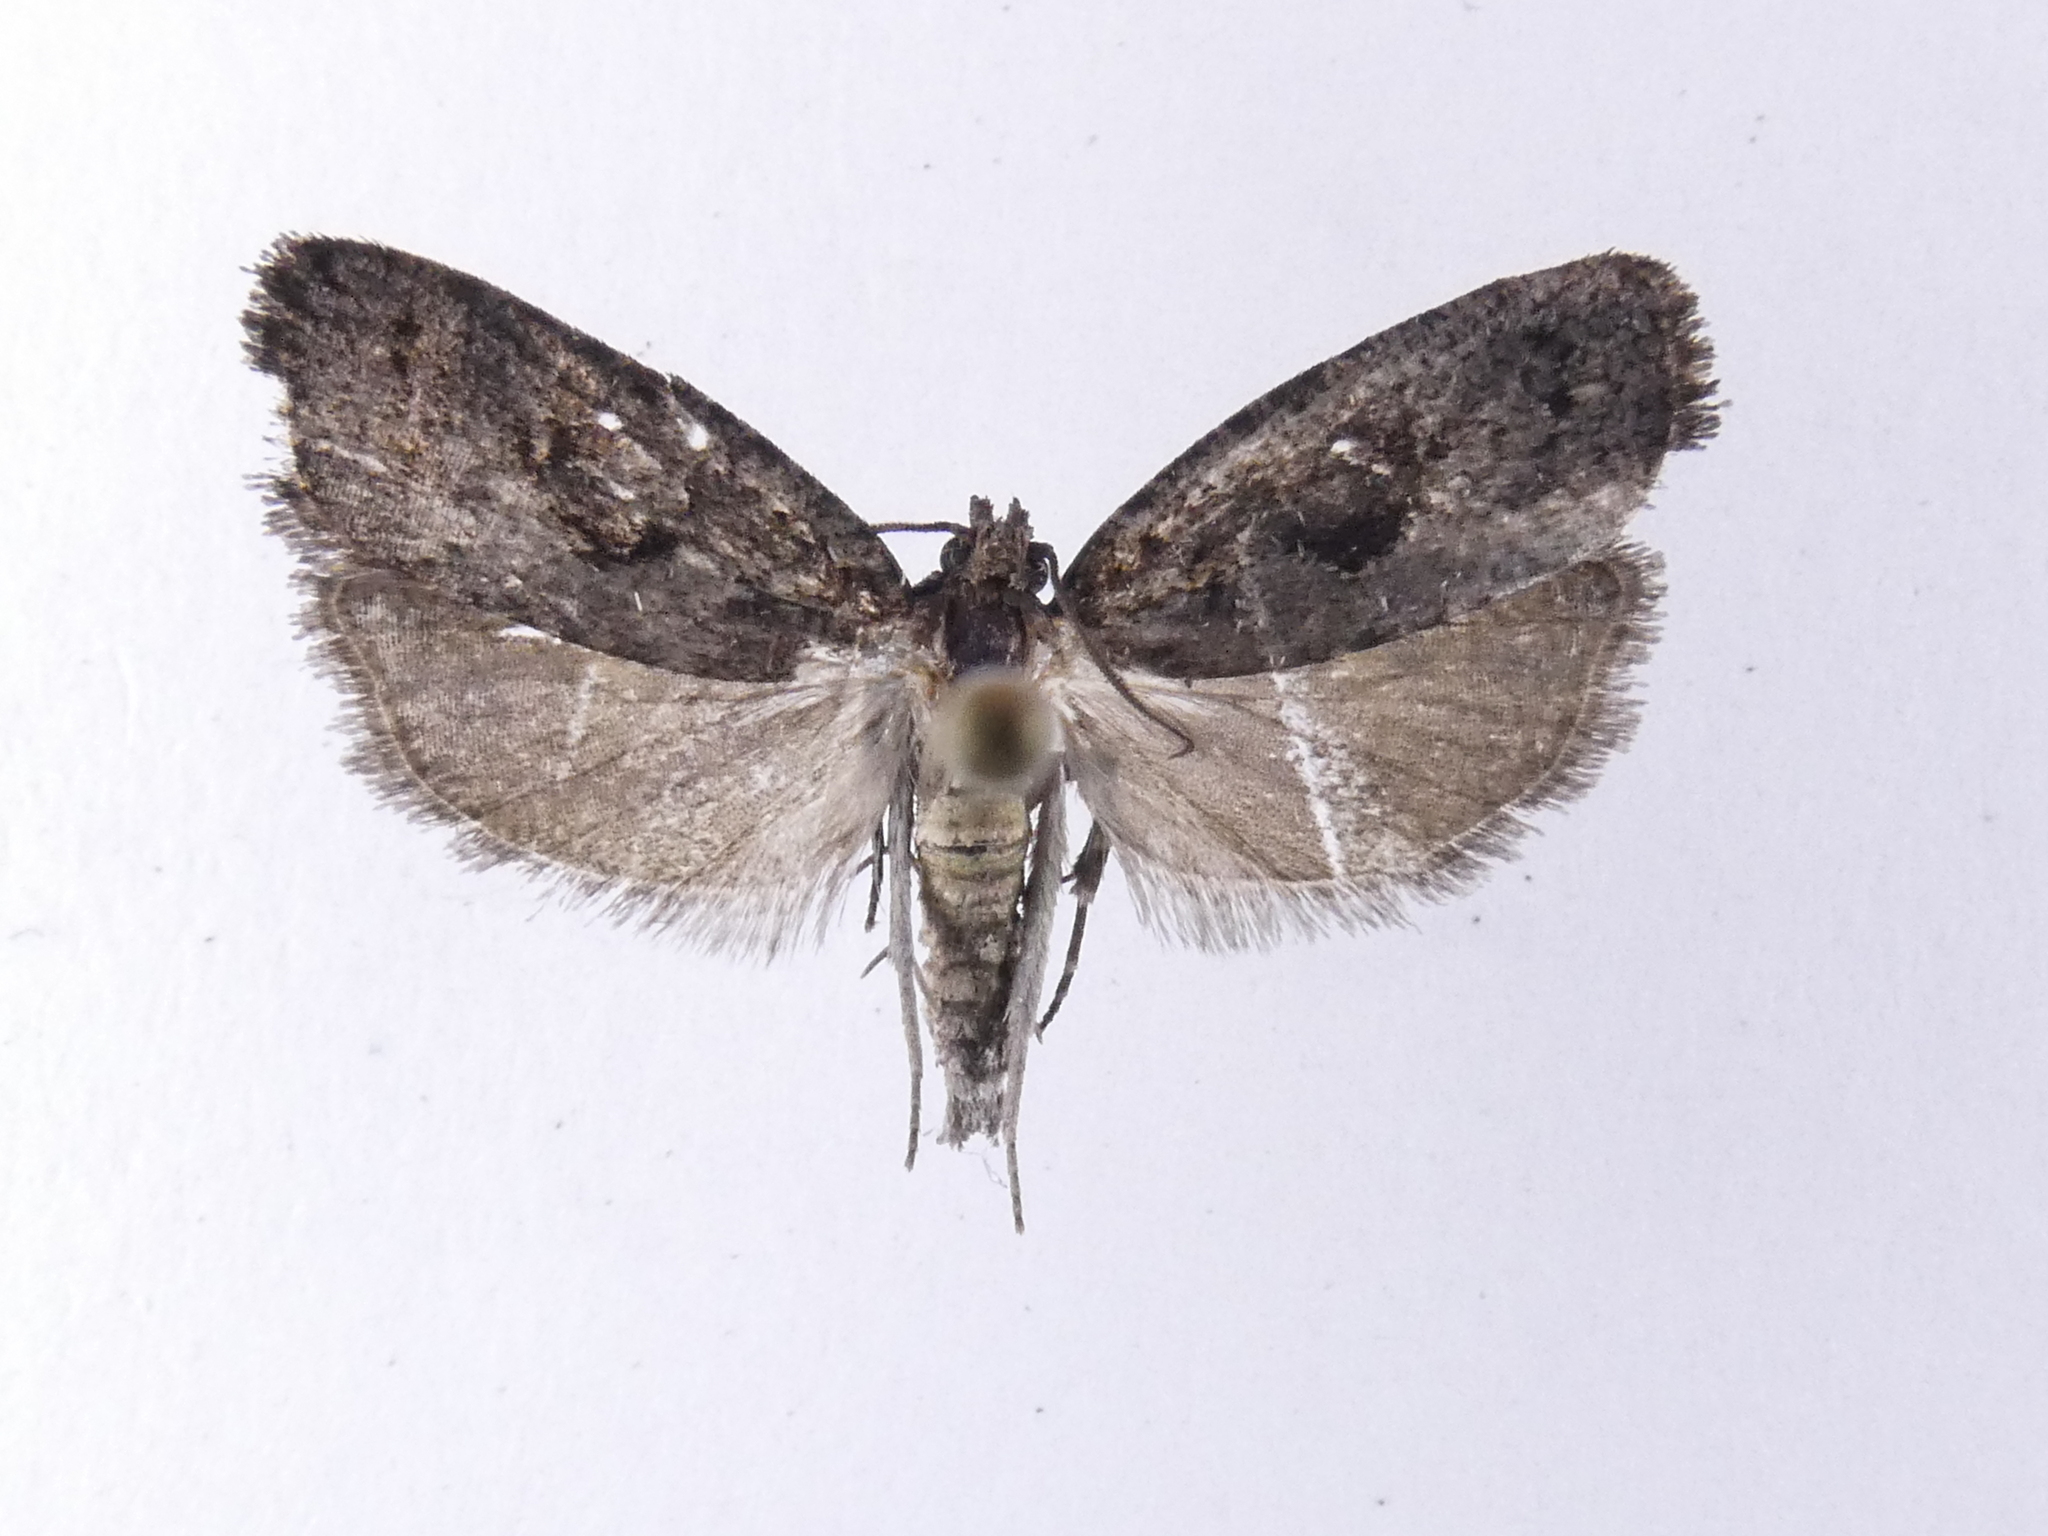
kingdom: Animalia
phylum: Arthropoda
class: Insecta
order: Lepidoptera
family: Tortricidae
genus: Cryptaspasma
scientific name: Cryptaspasma querula
